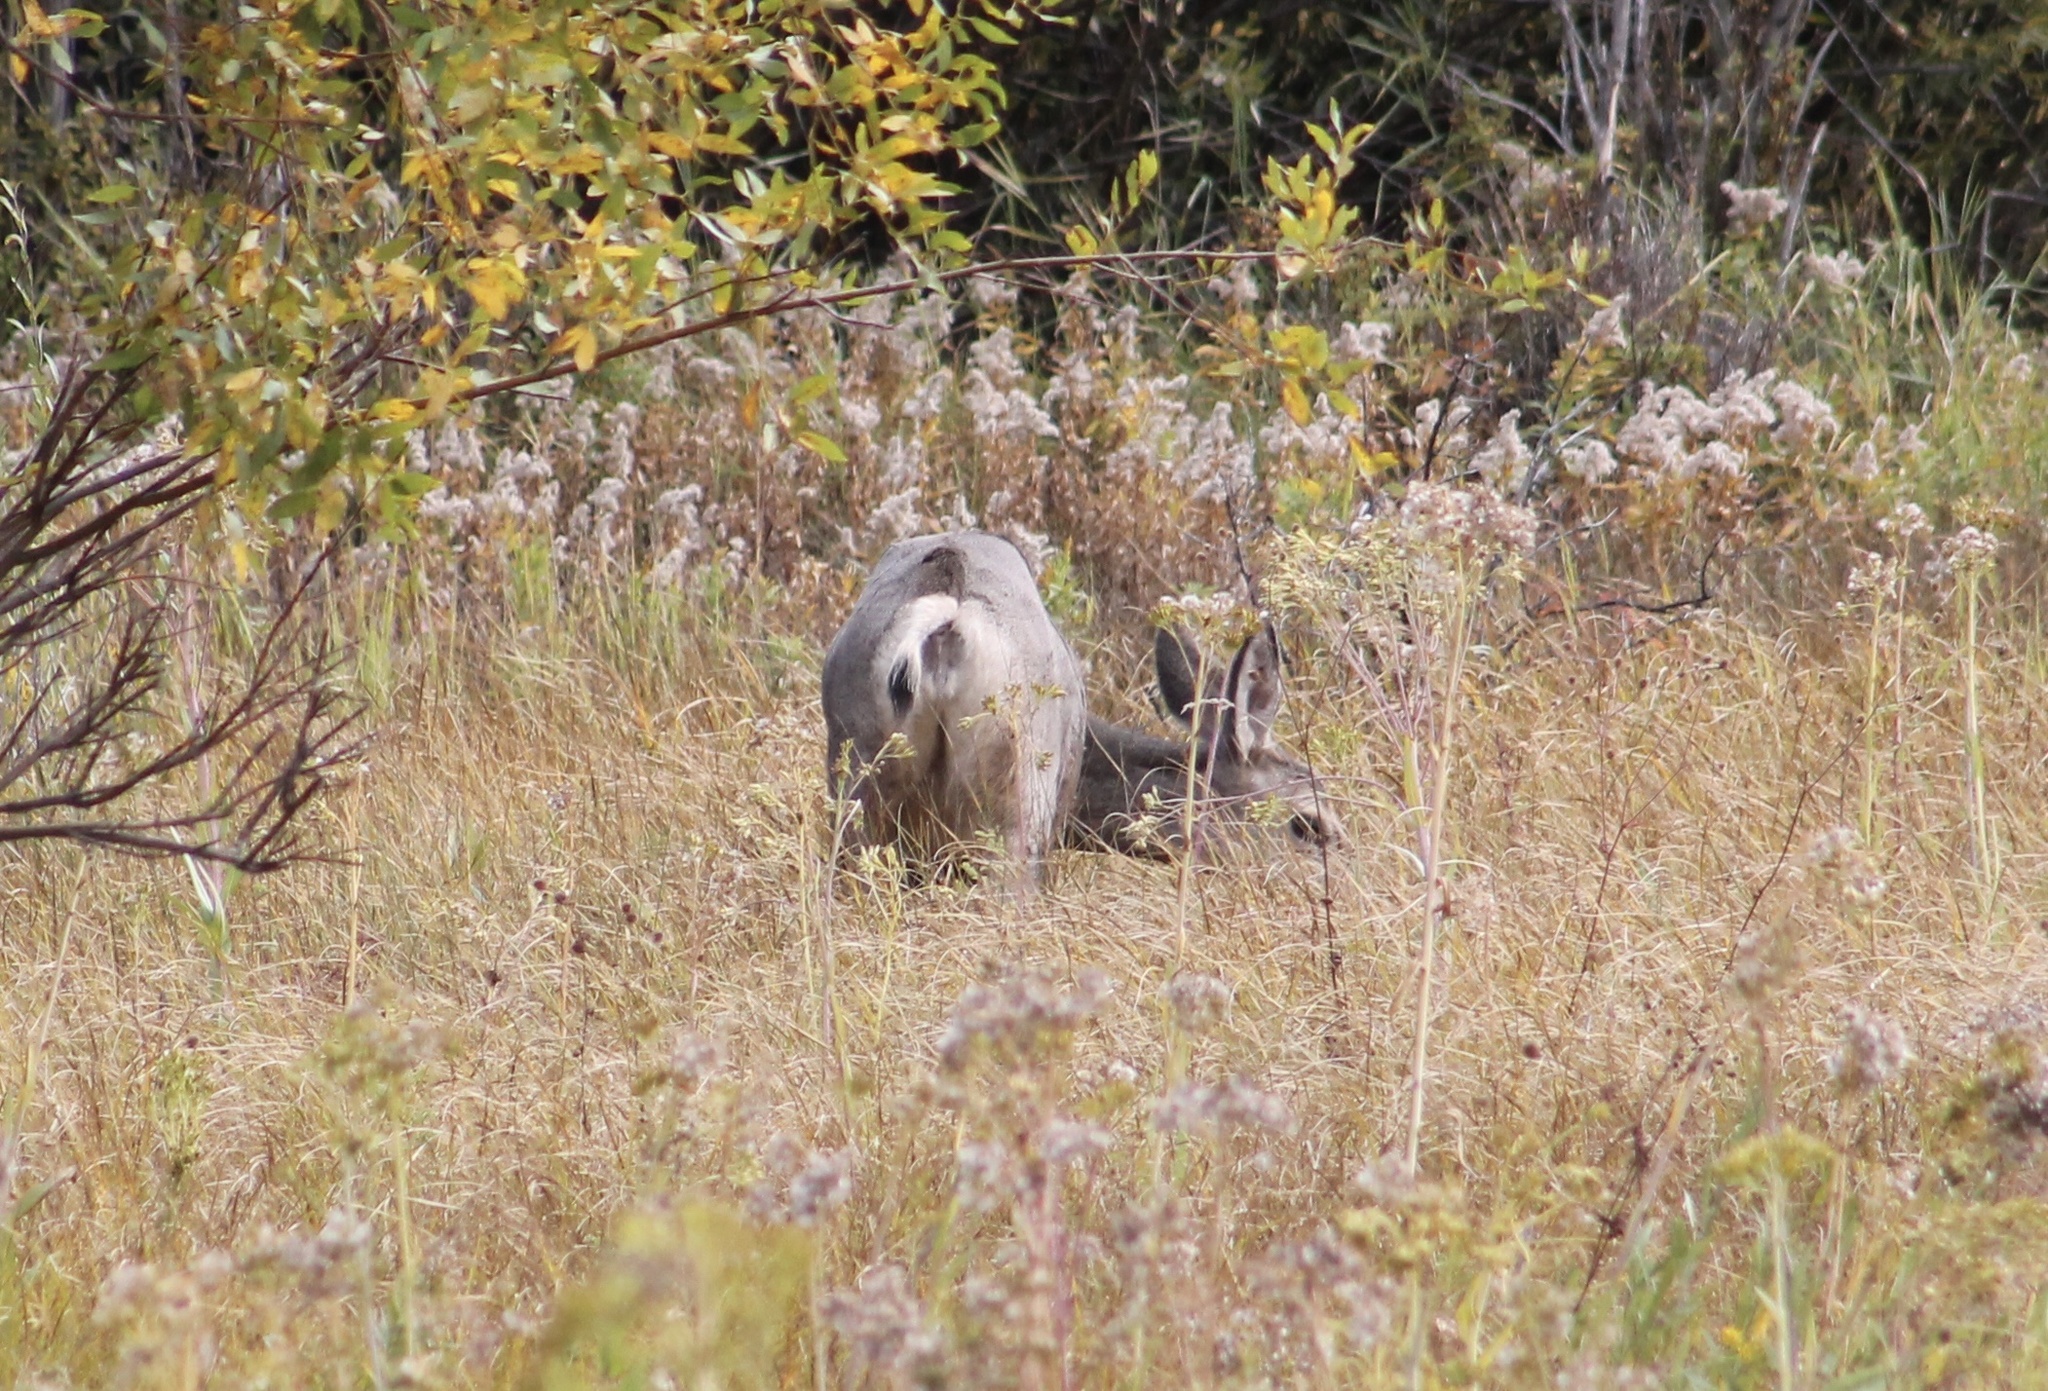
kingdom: Animalia
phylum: Chordata
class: Mammalia
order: Artiodactyla
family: Cervidae
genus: Odocoileus
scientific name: Odocoileus hemionus
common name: Mule deer
